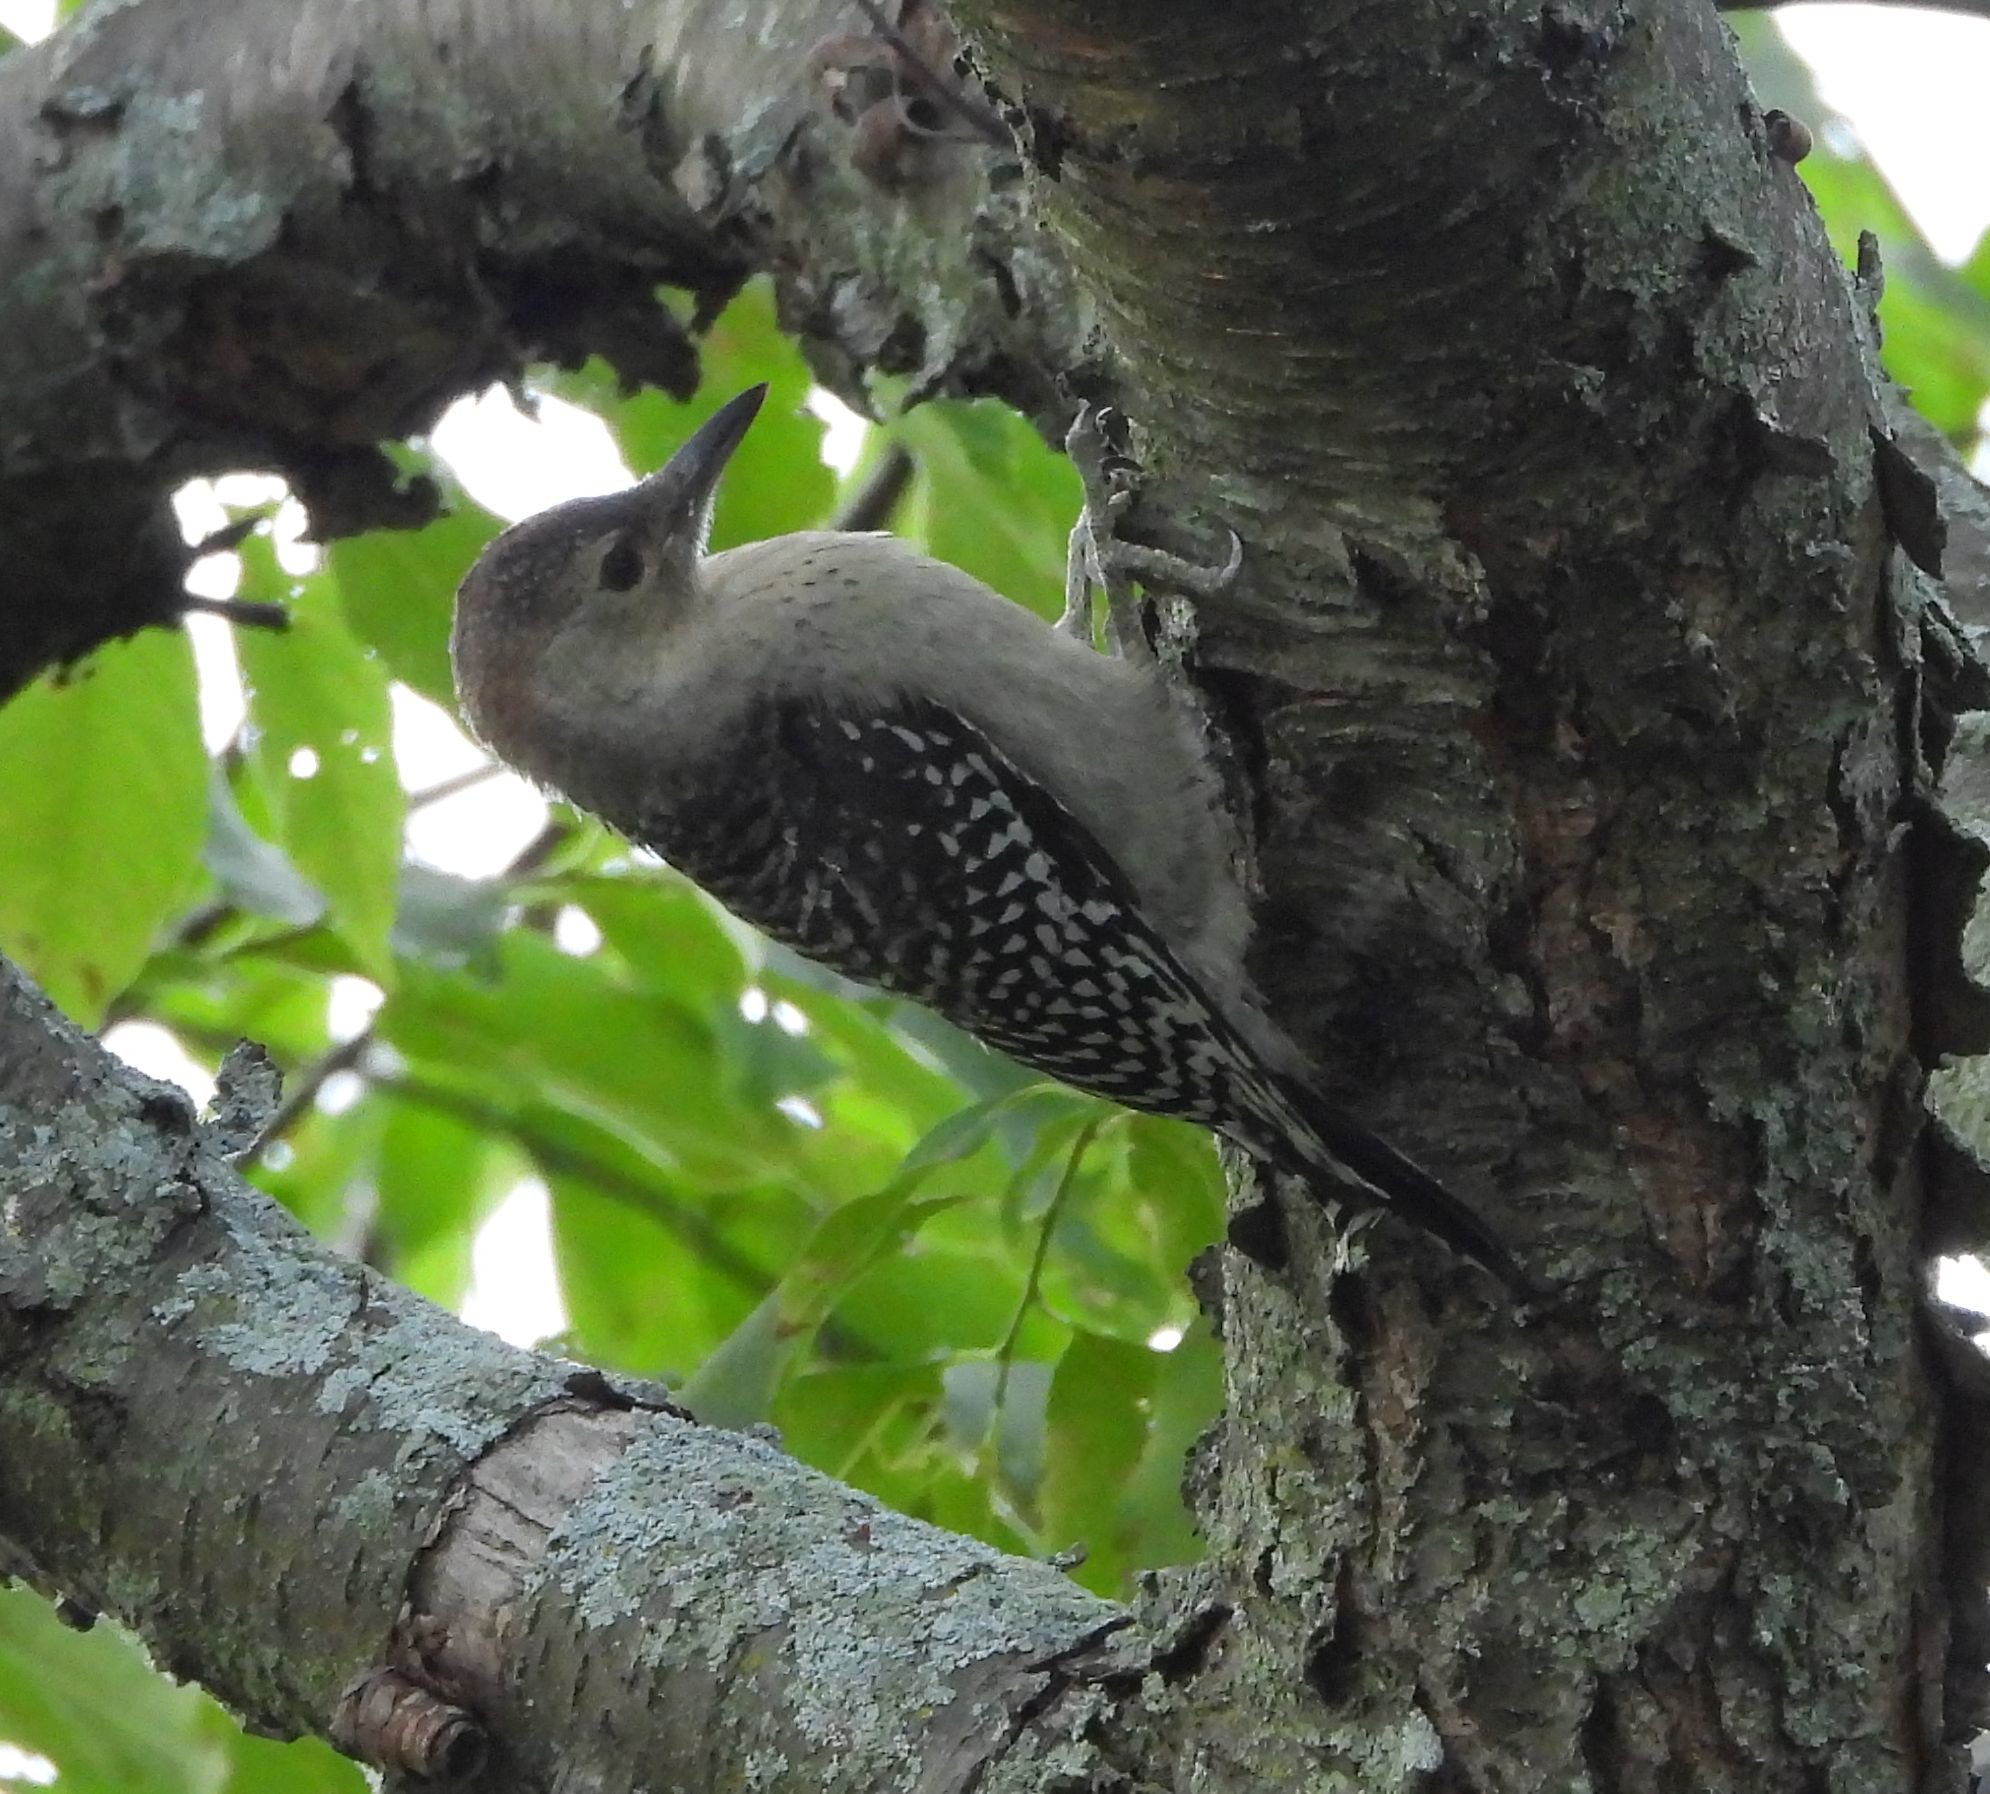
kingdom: Animalia
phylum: Chordata
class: Aves
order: Piciformes
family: Picidae
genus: Melanerpes
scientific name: Melanerpes carolinus
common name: Red-bellied woodpecker
